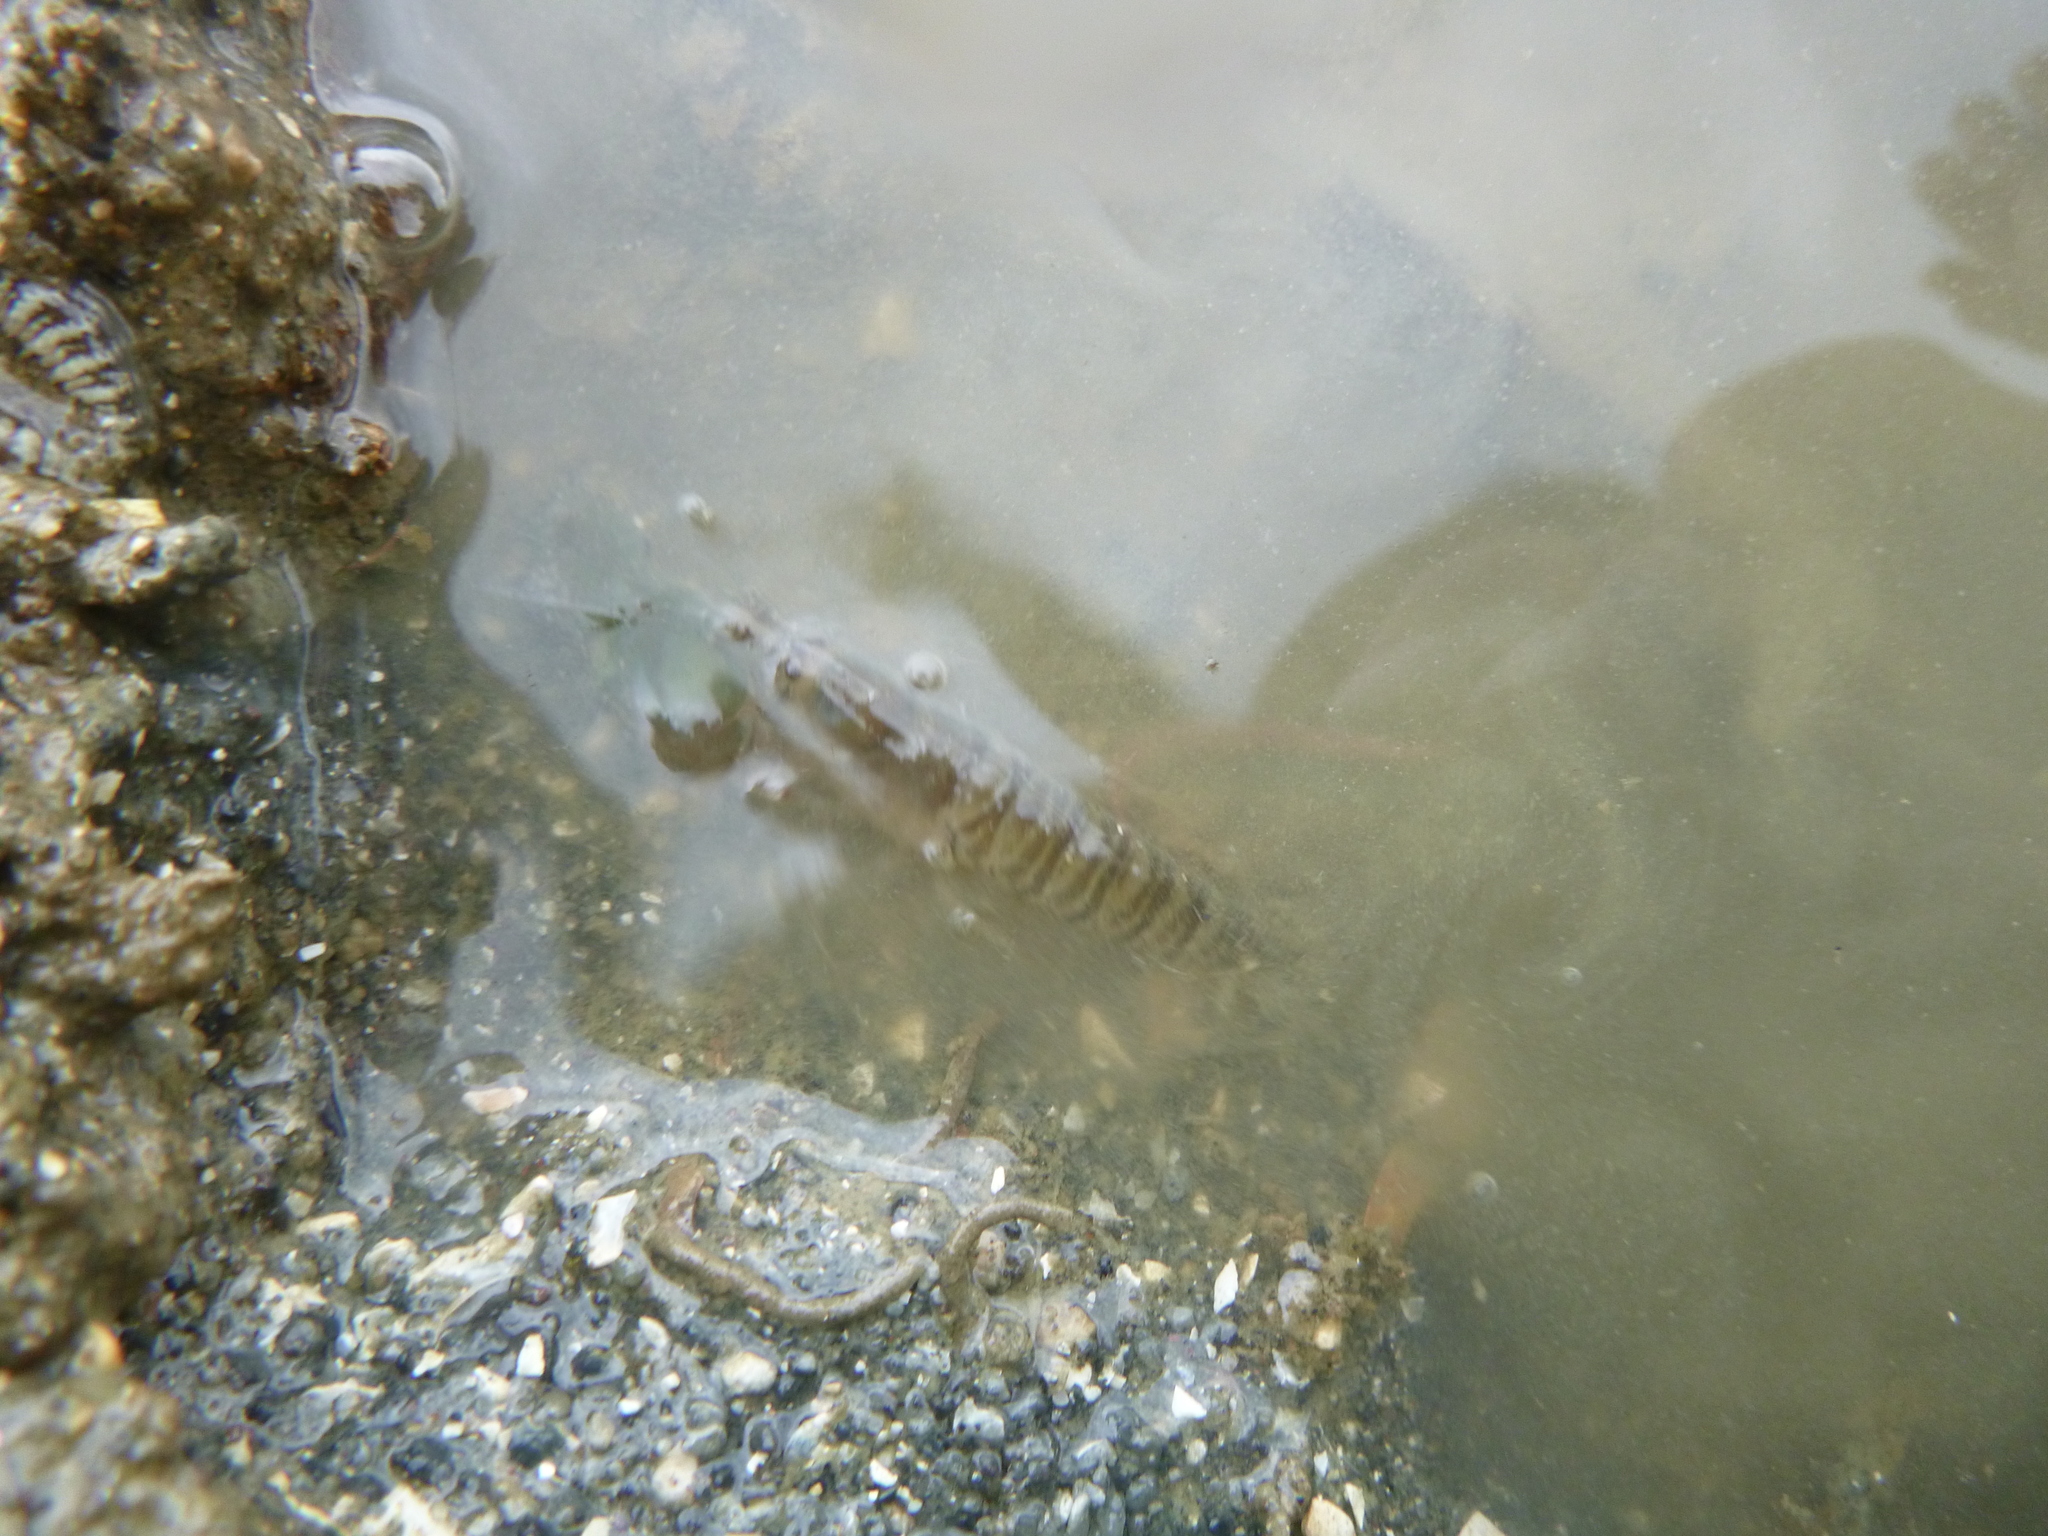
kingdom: Animalia
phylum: Arthropoda
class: Malacostraca
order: Decapoda
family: Alpheidae
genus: Alpheus
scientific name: Alpheus richardsoni
